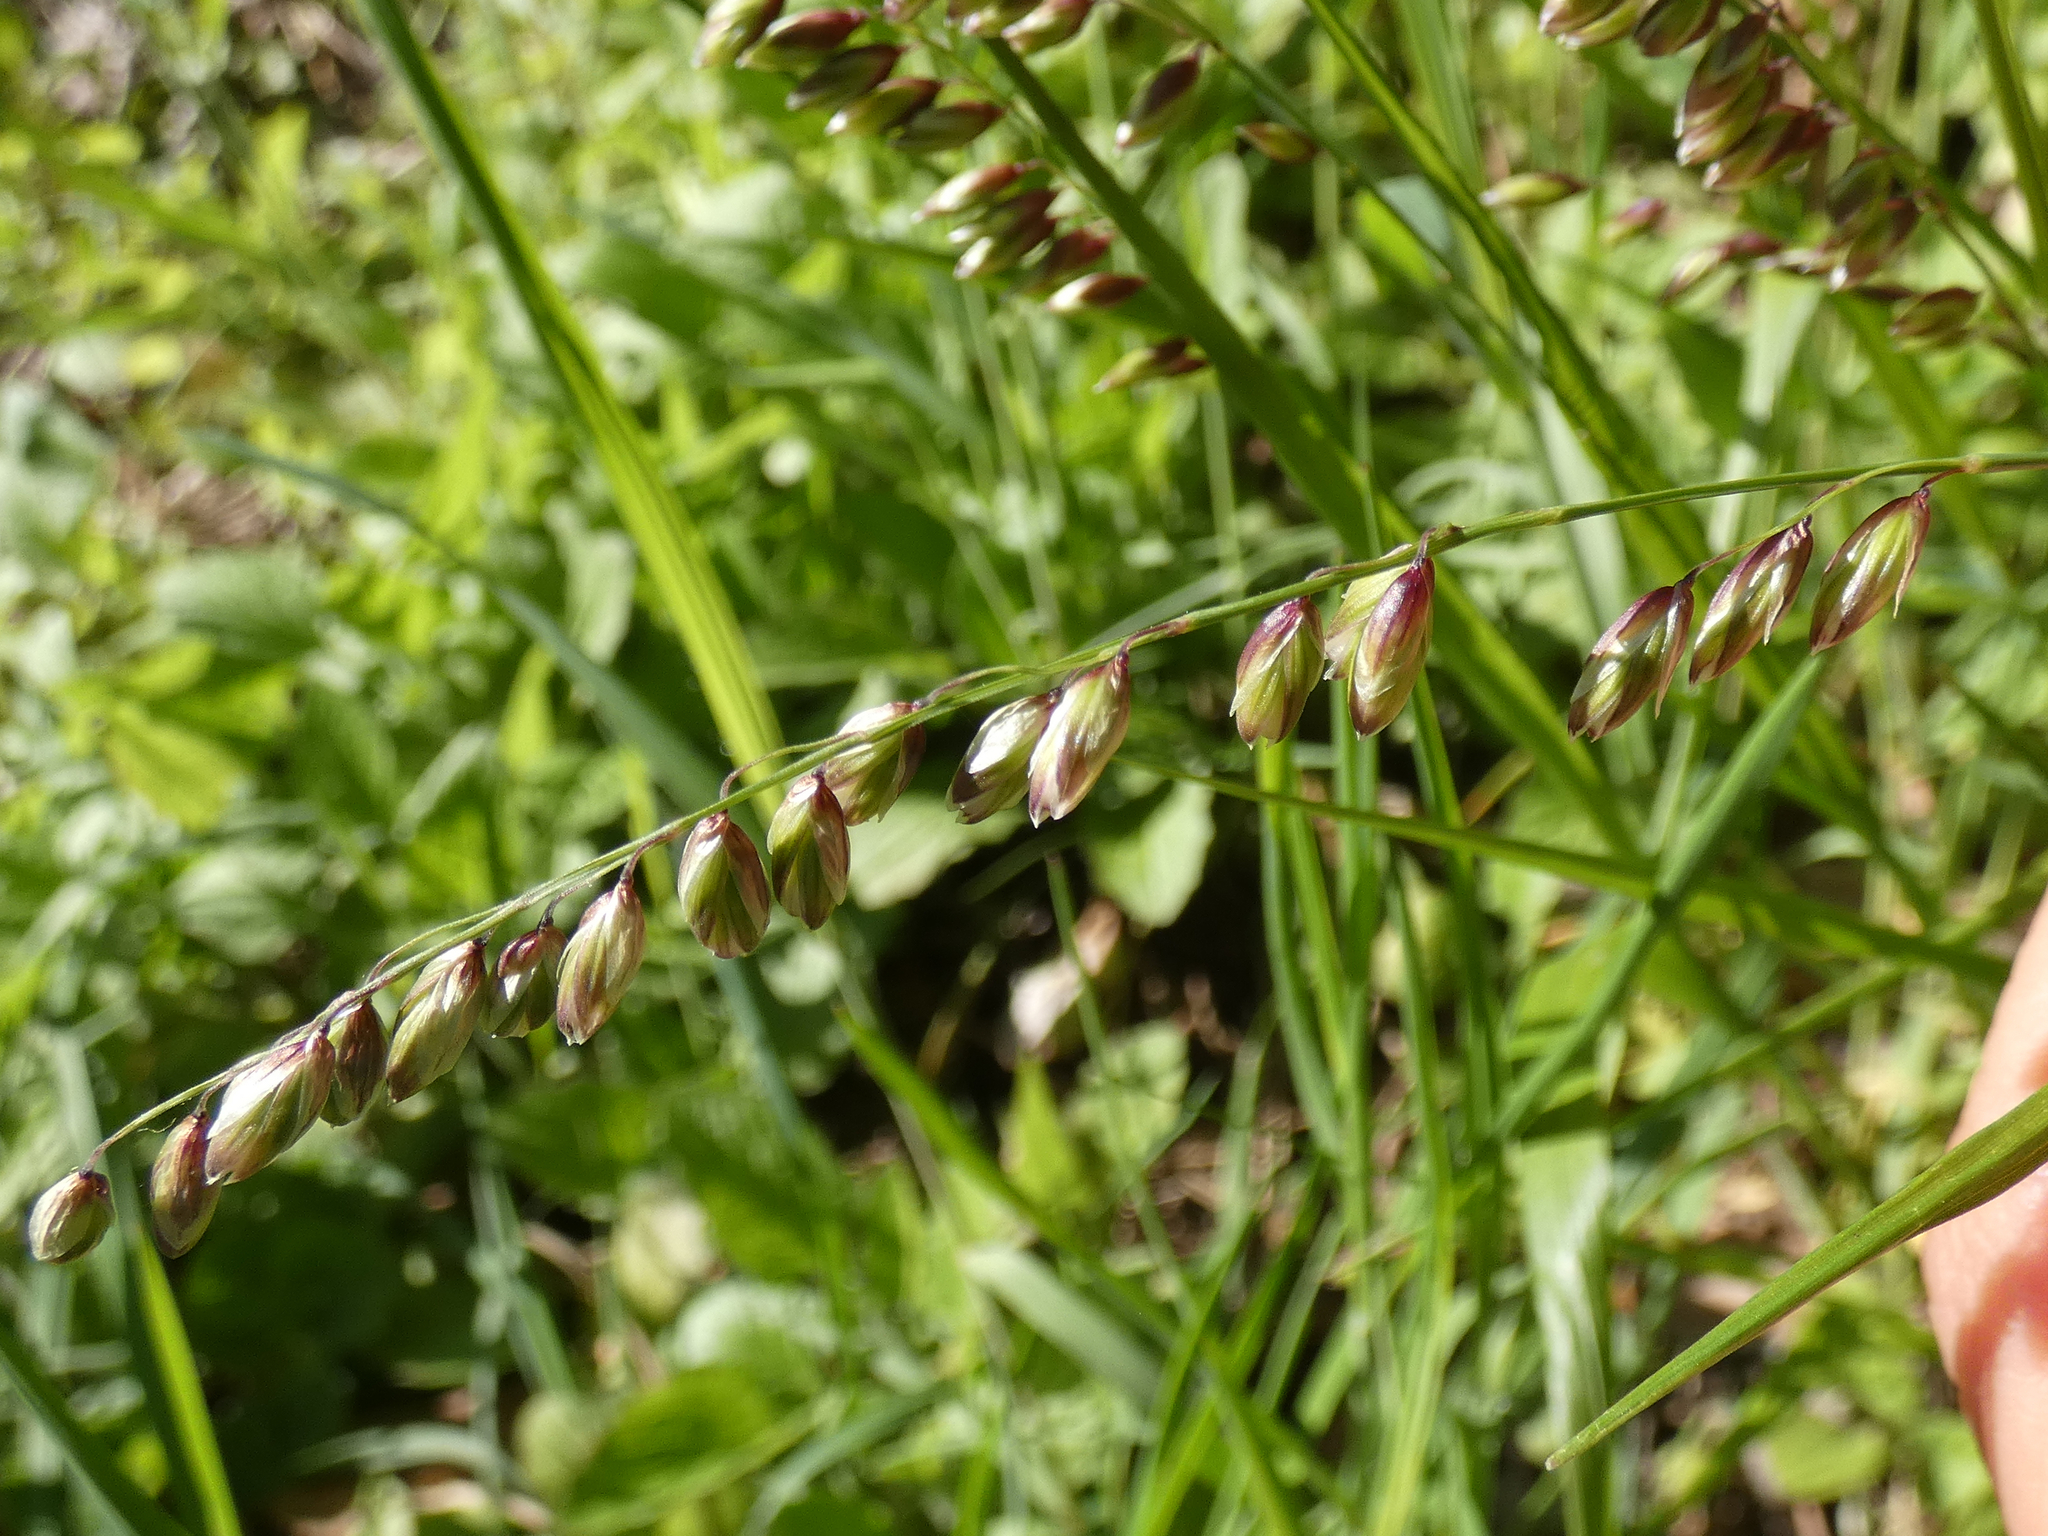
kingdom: Plantae
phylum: Tracheophyta
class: Liliopsida
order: Poales
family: Poaceae
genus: Melica
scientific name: Melica nutans
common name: Mountain melick
